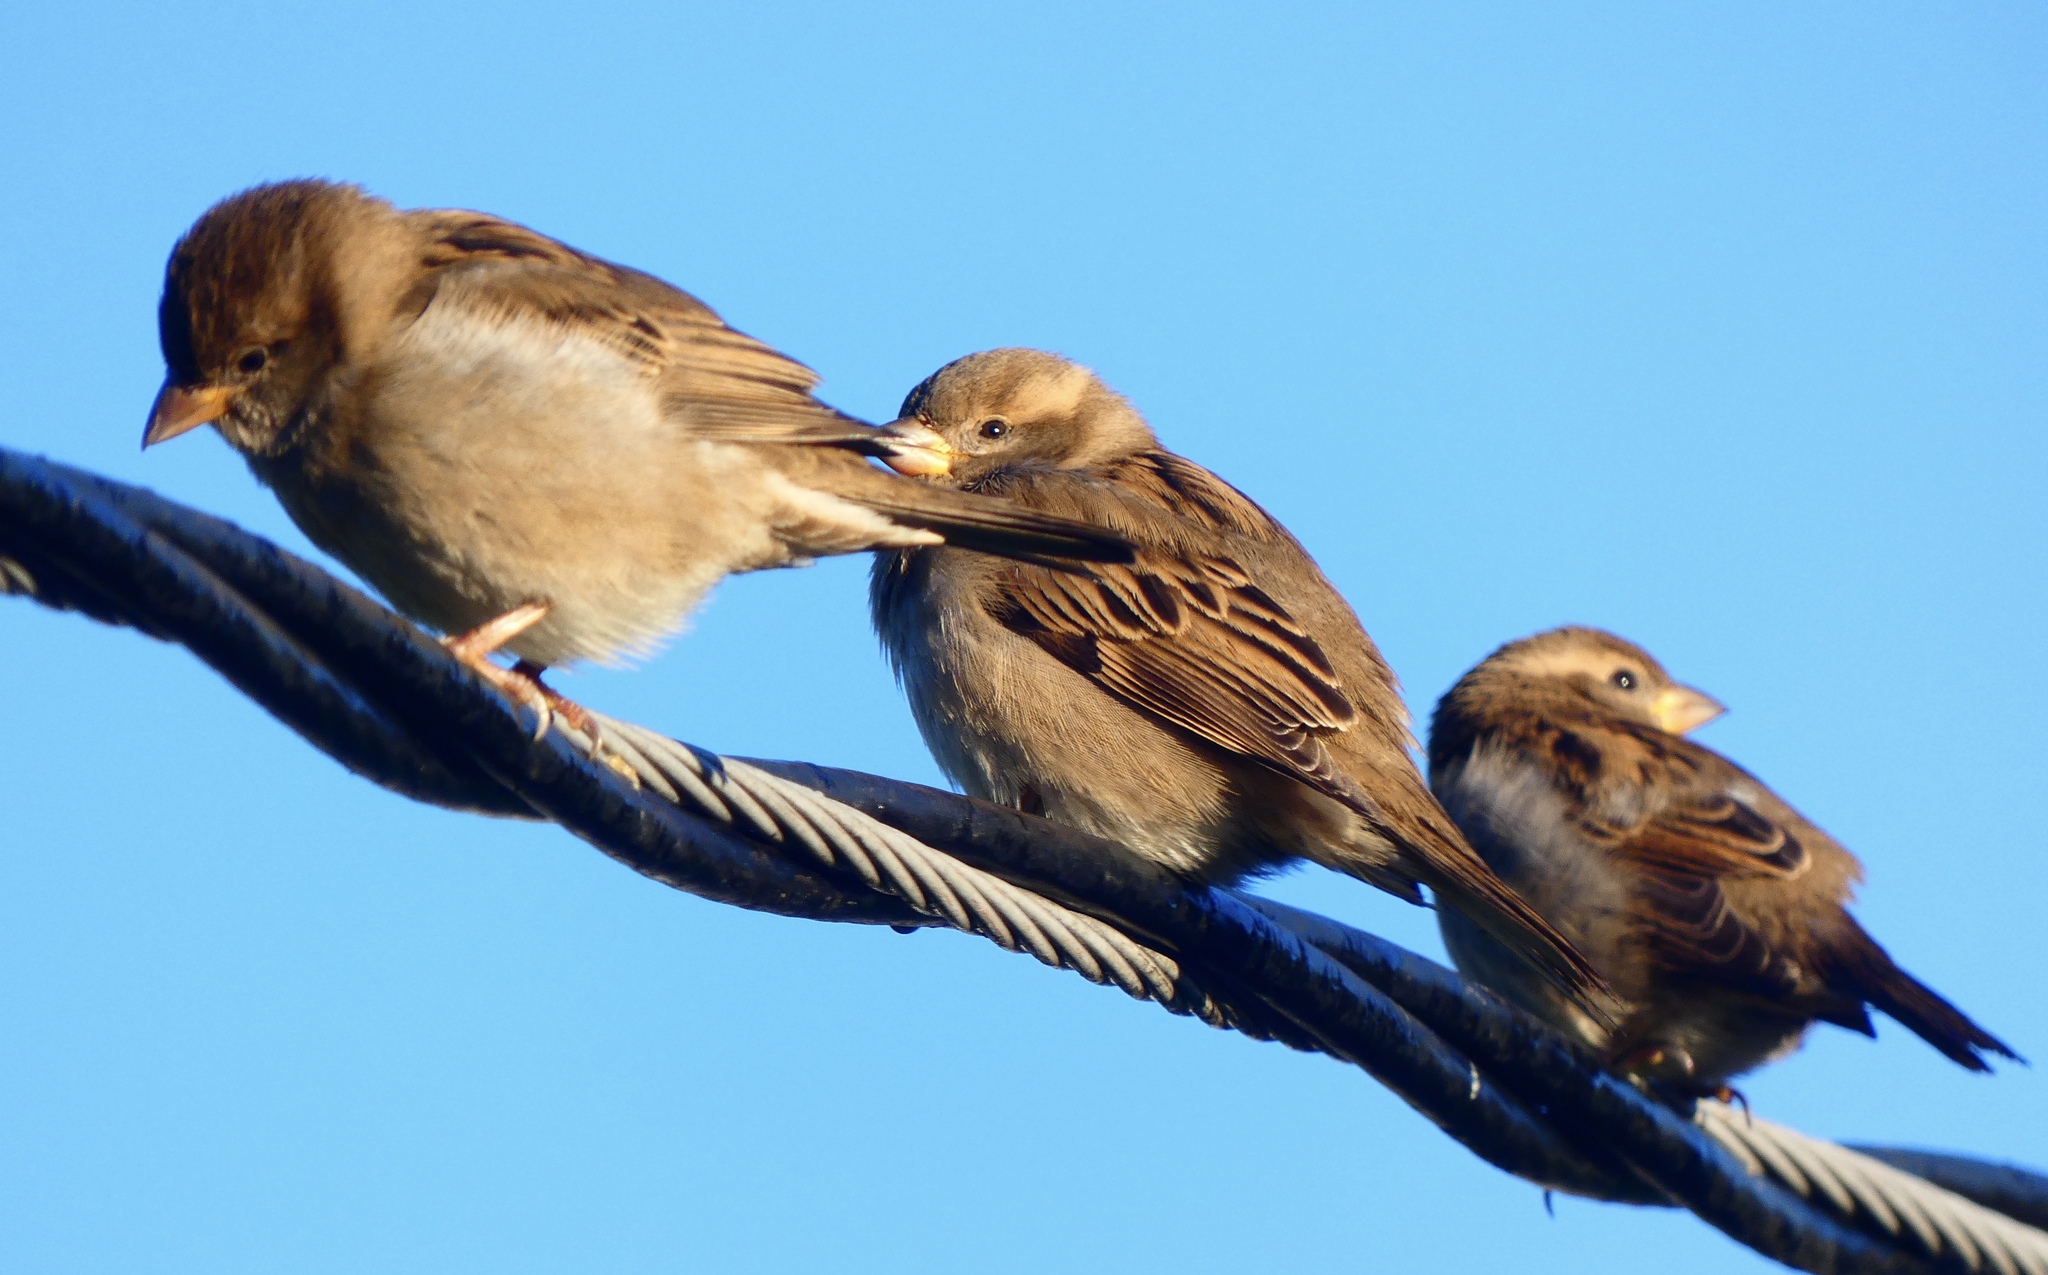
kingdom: Animalia
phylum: Chordata
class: Aves
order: Passeriformes
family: Passeridae
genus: Passer
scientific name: Passer domesticus
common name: House sparrow
